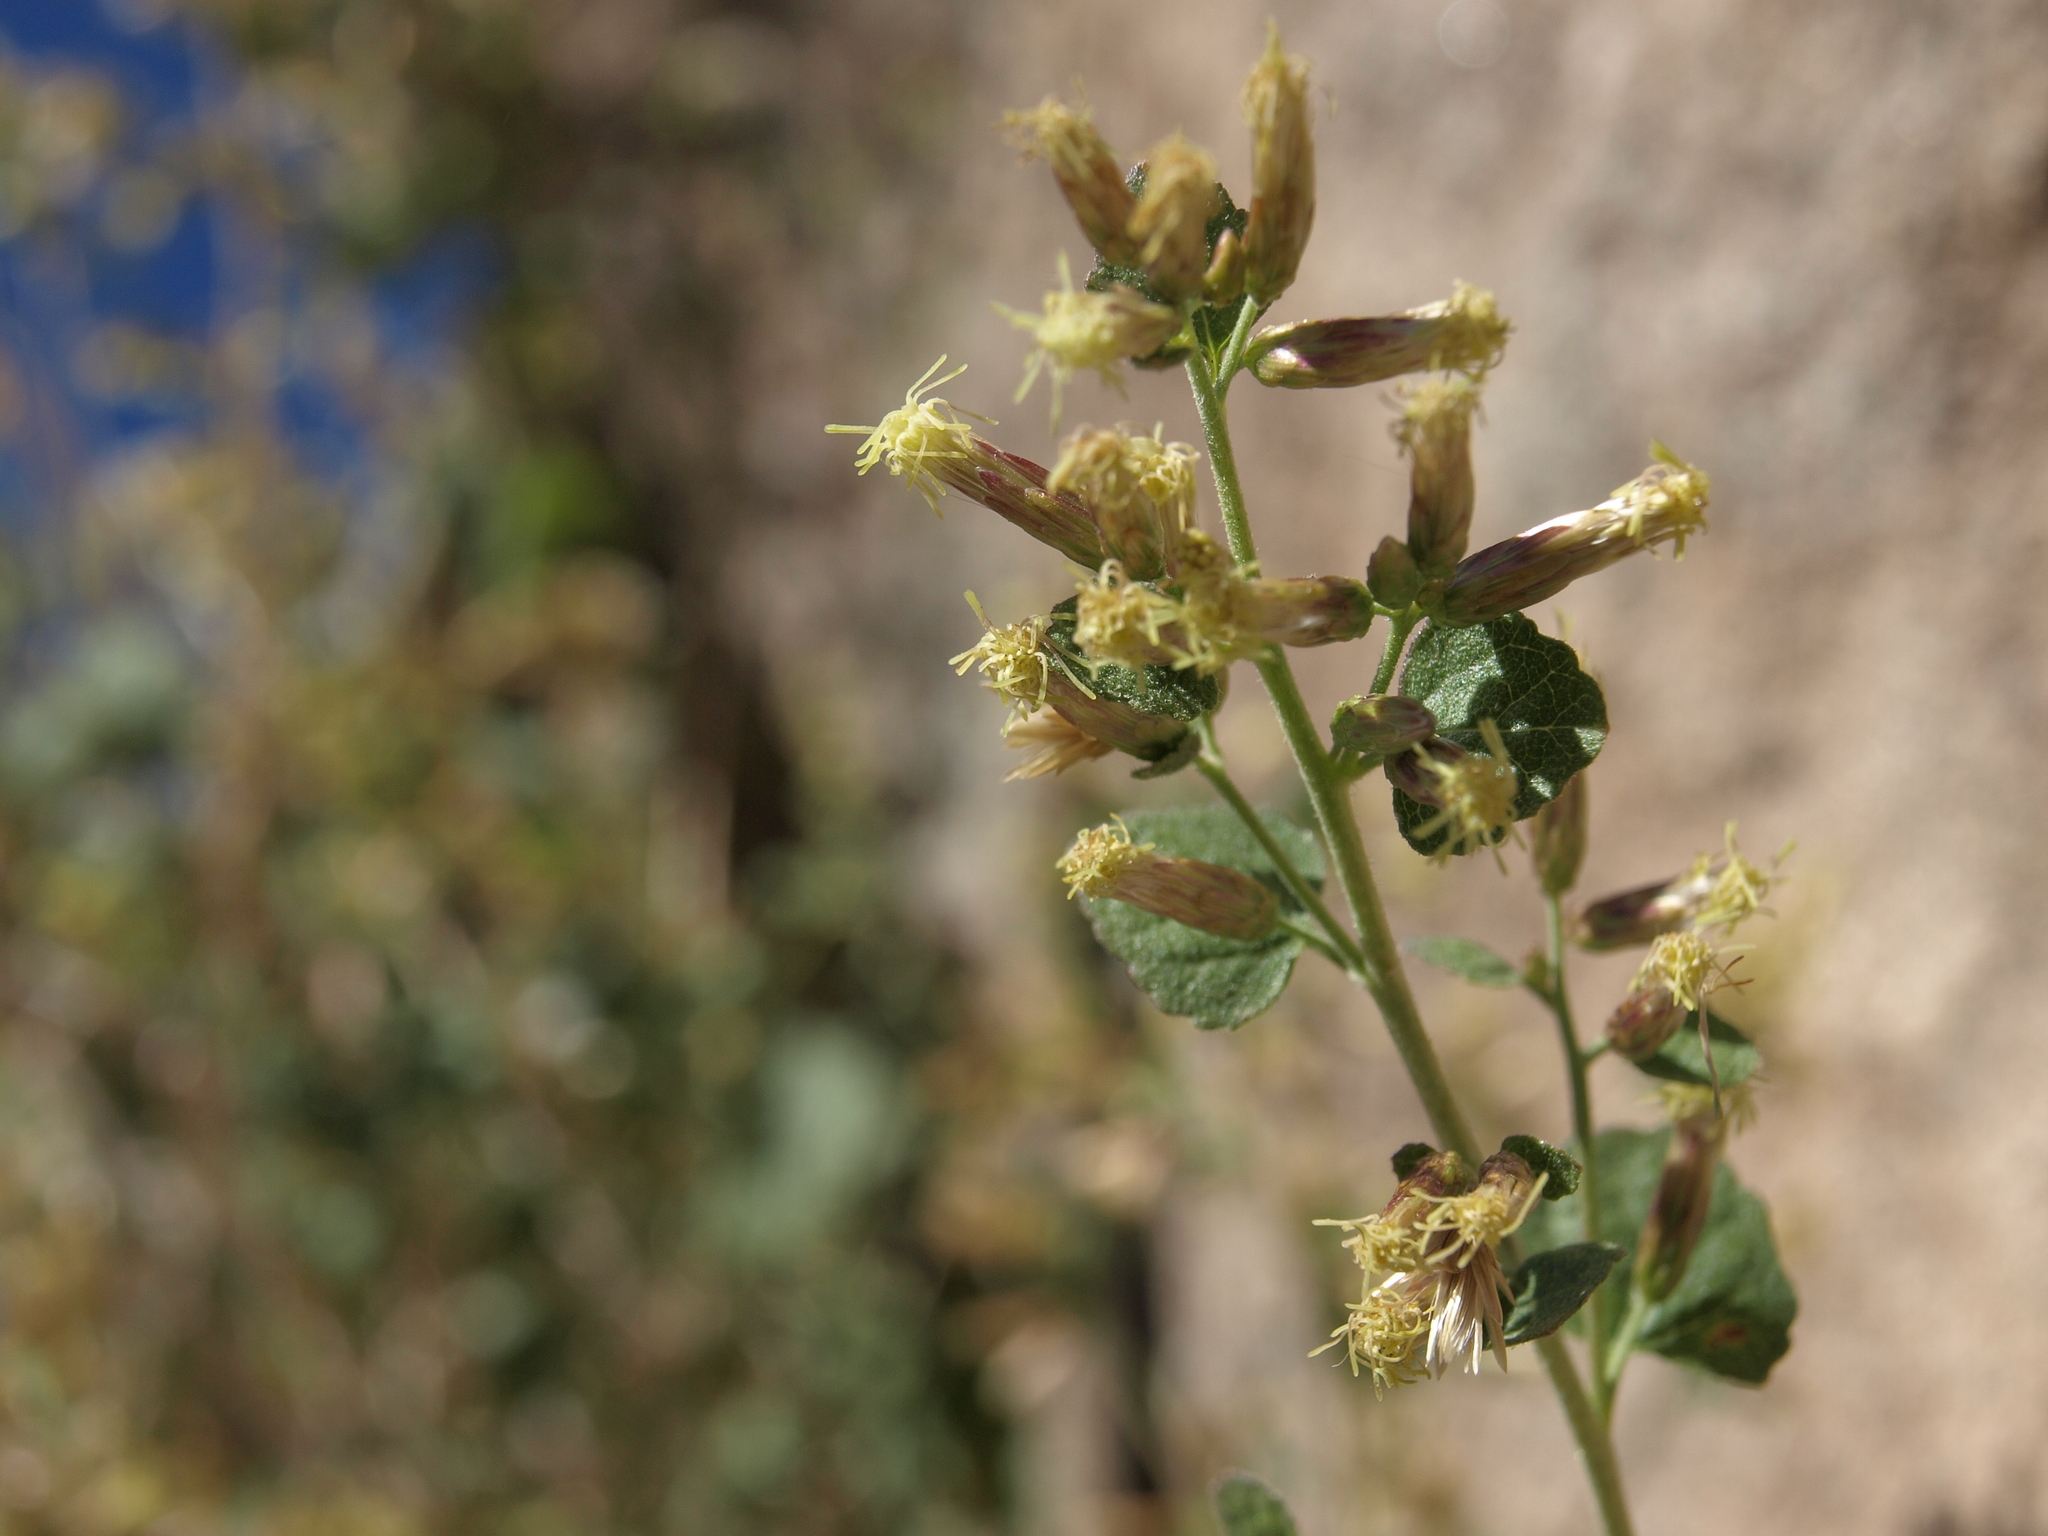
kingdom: Plantae
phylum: Tracheophyta
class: Magnoliopsida
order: Asterales
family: Asteraceae
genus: Brickellia
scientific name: Brickellia californica
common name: California brickellbush
